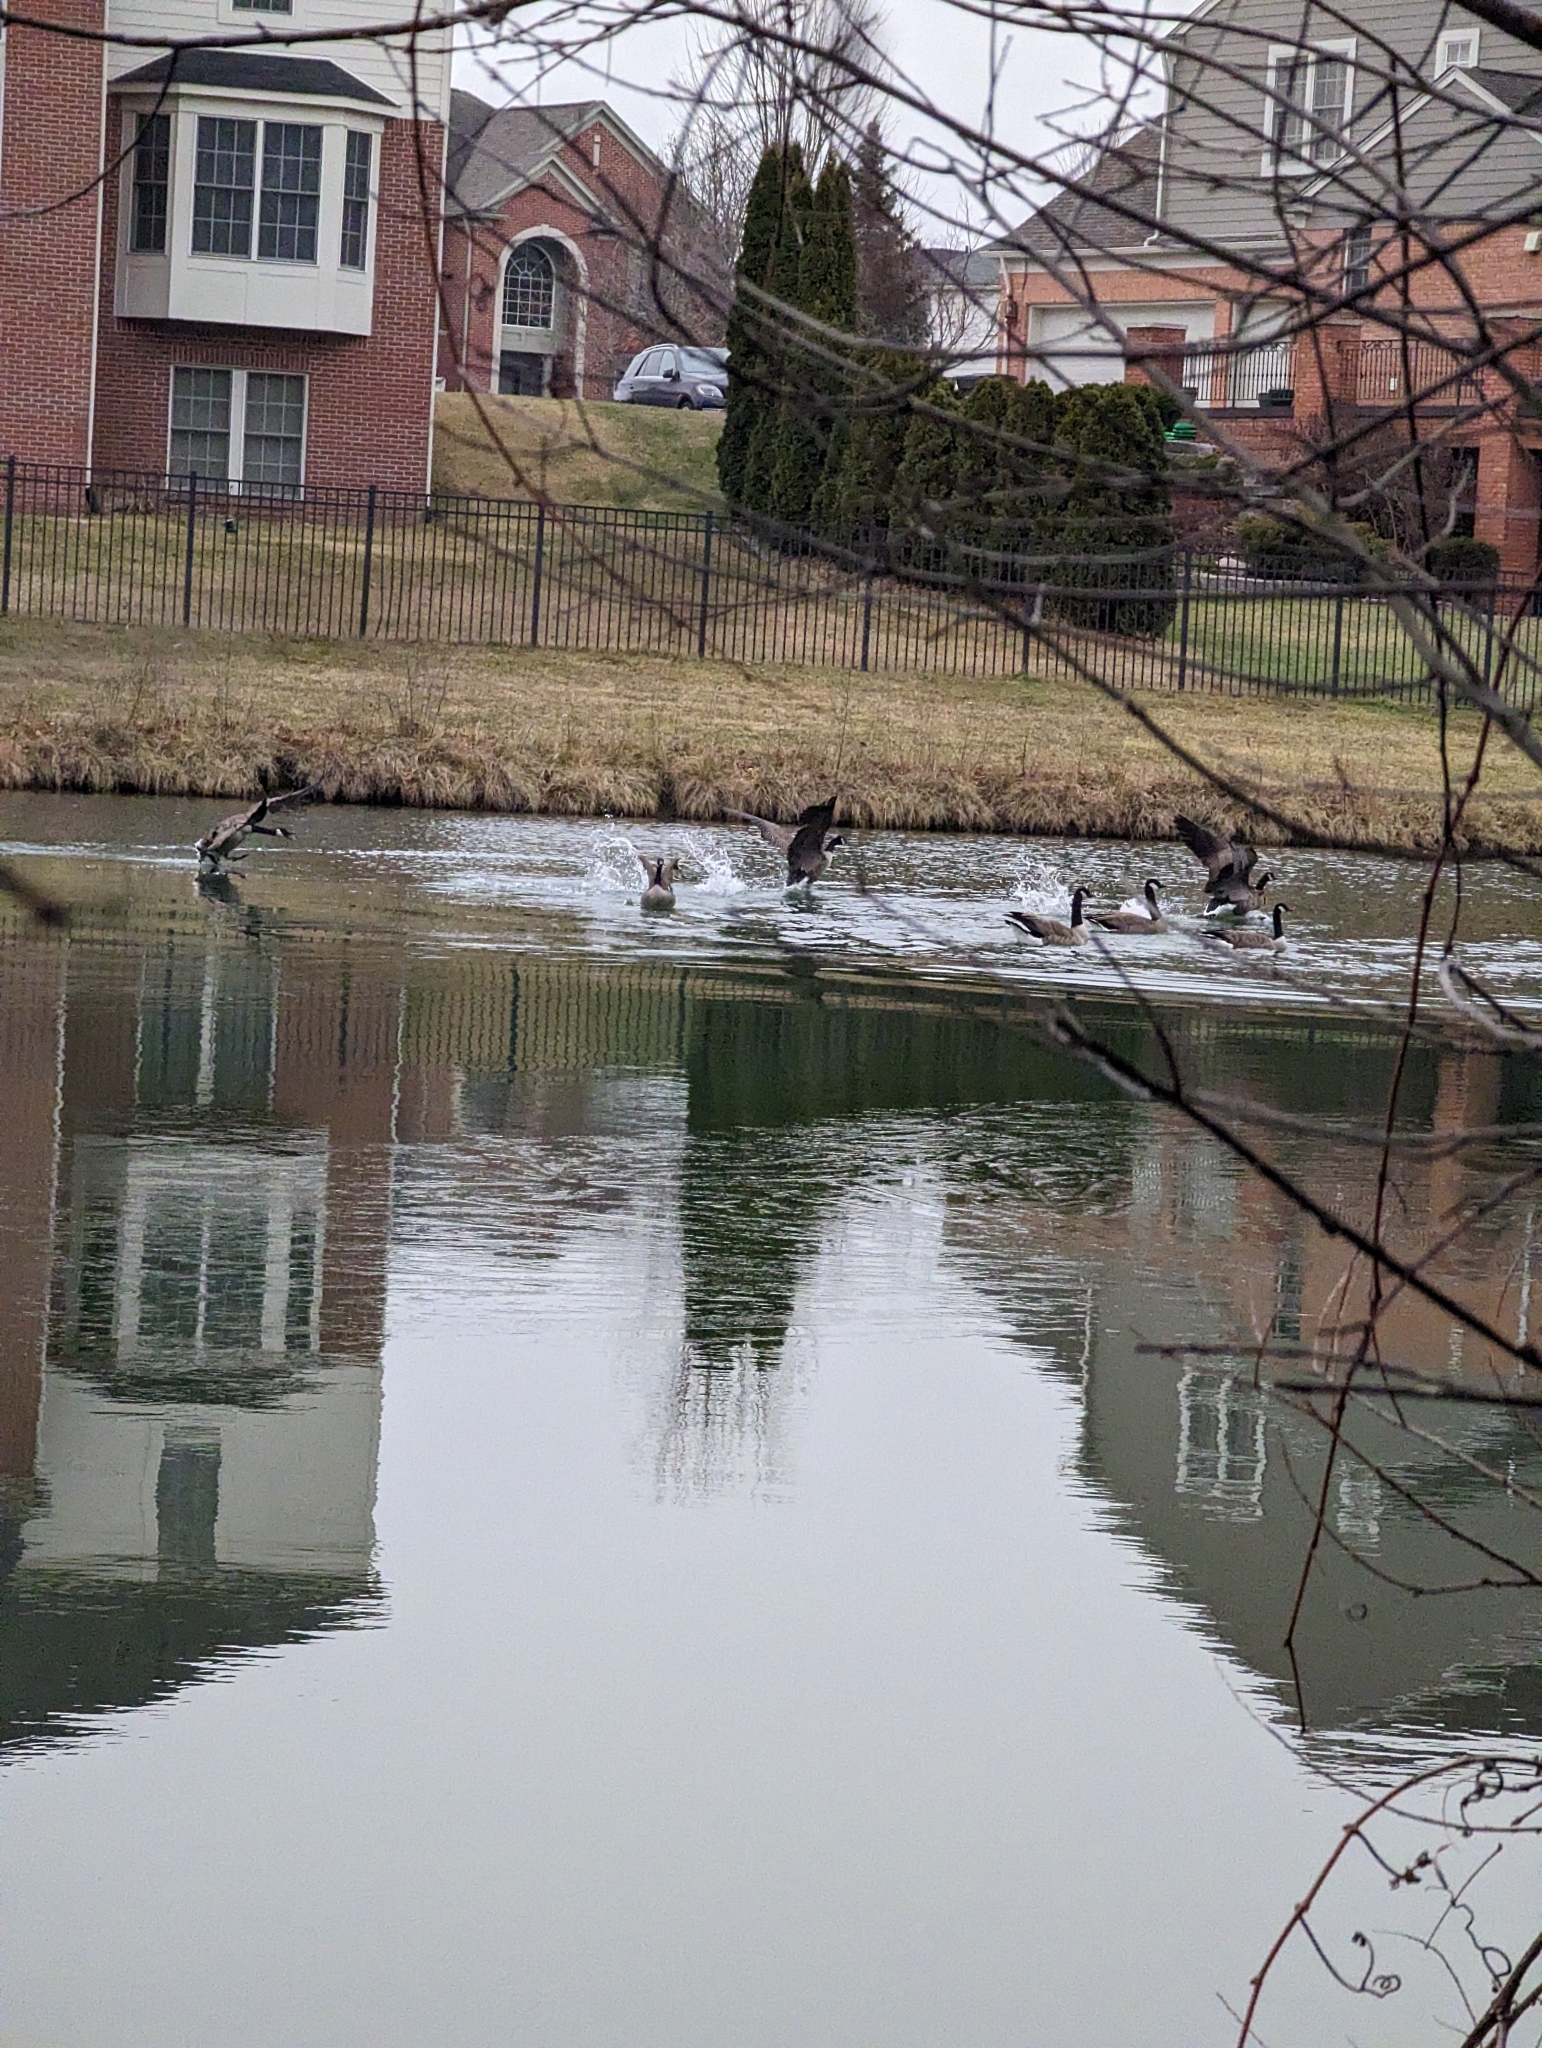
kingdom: Animalia
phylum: Chordata
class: Aves
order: Anseriformes
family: Anatidae
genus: Branta
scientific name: Branta canadensis
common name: Canada goose
